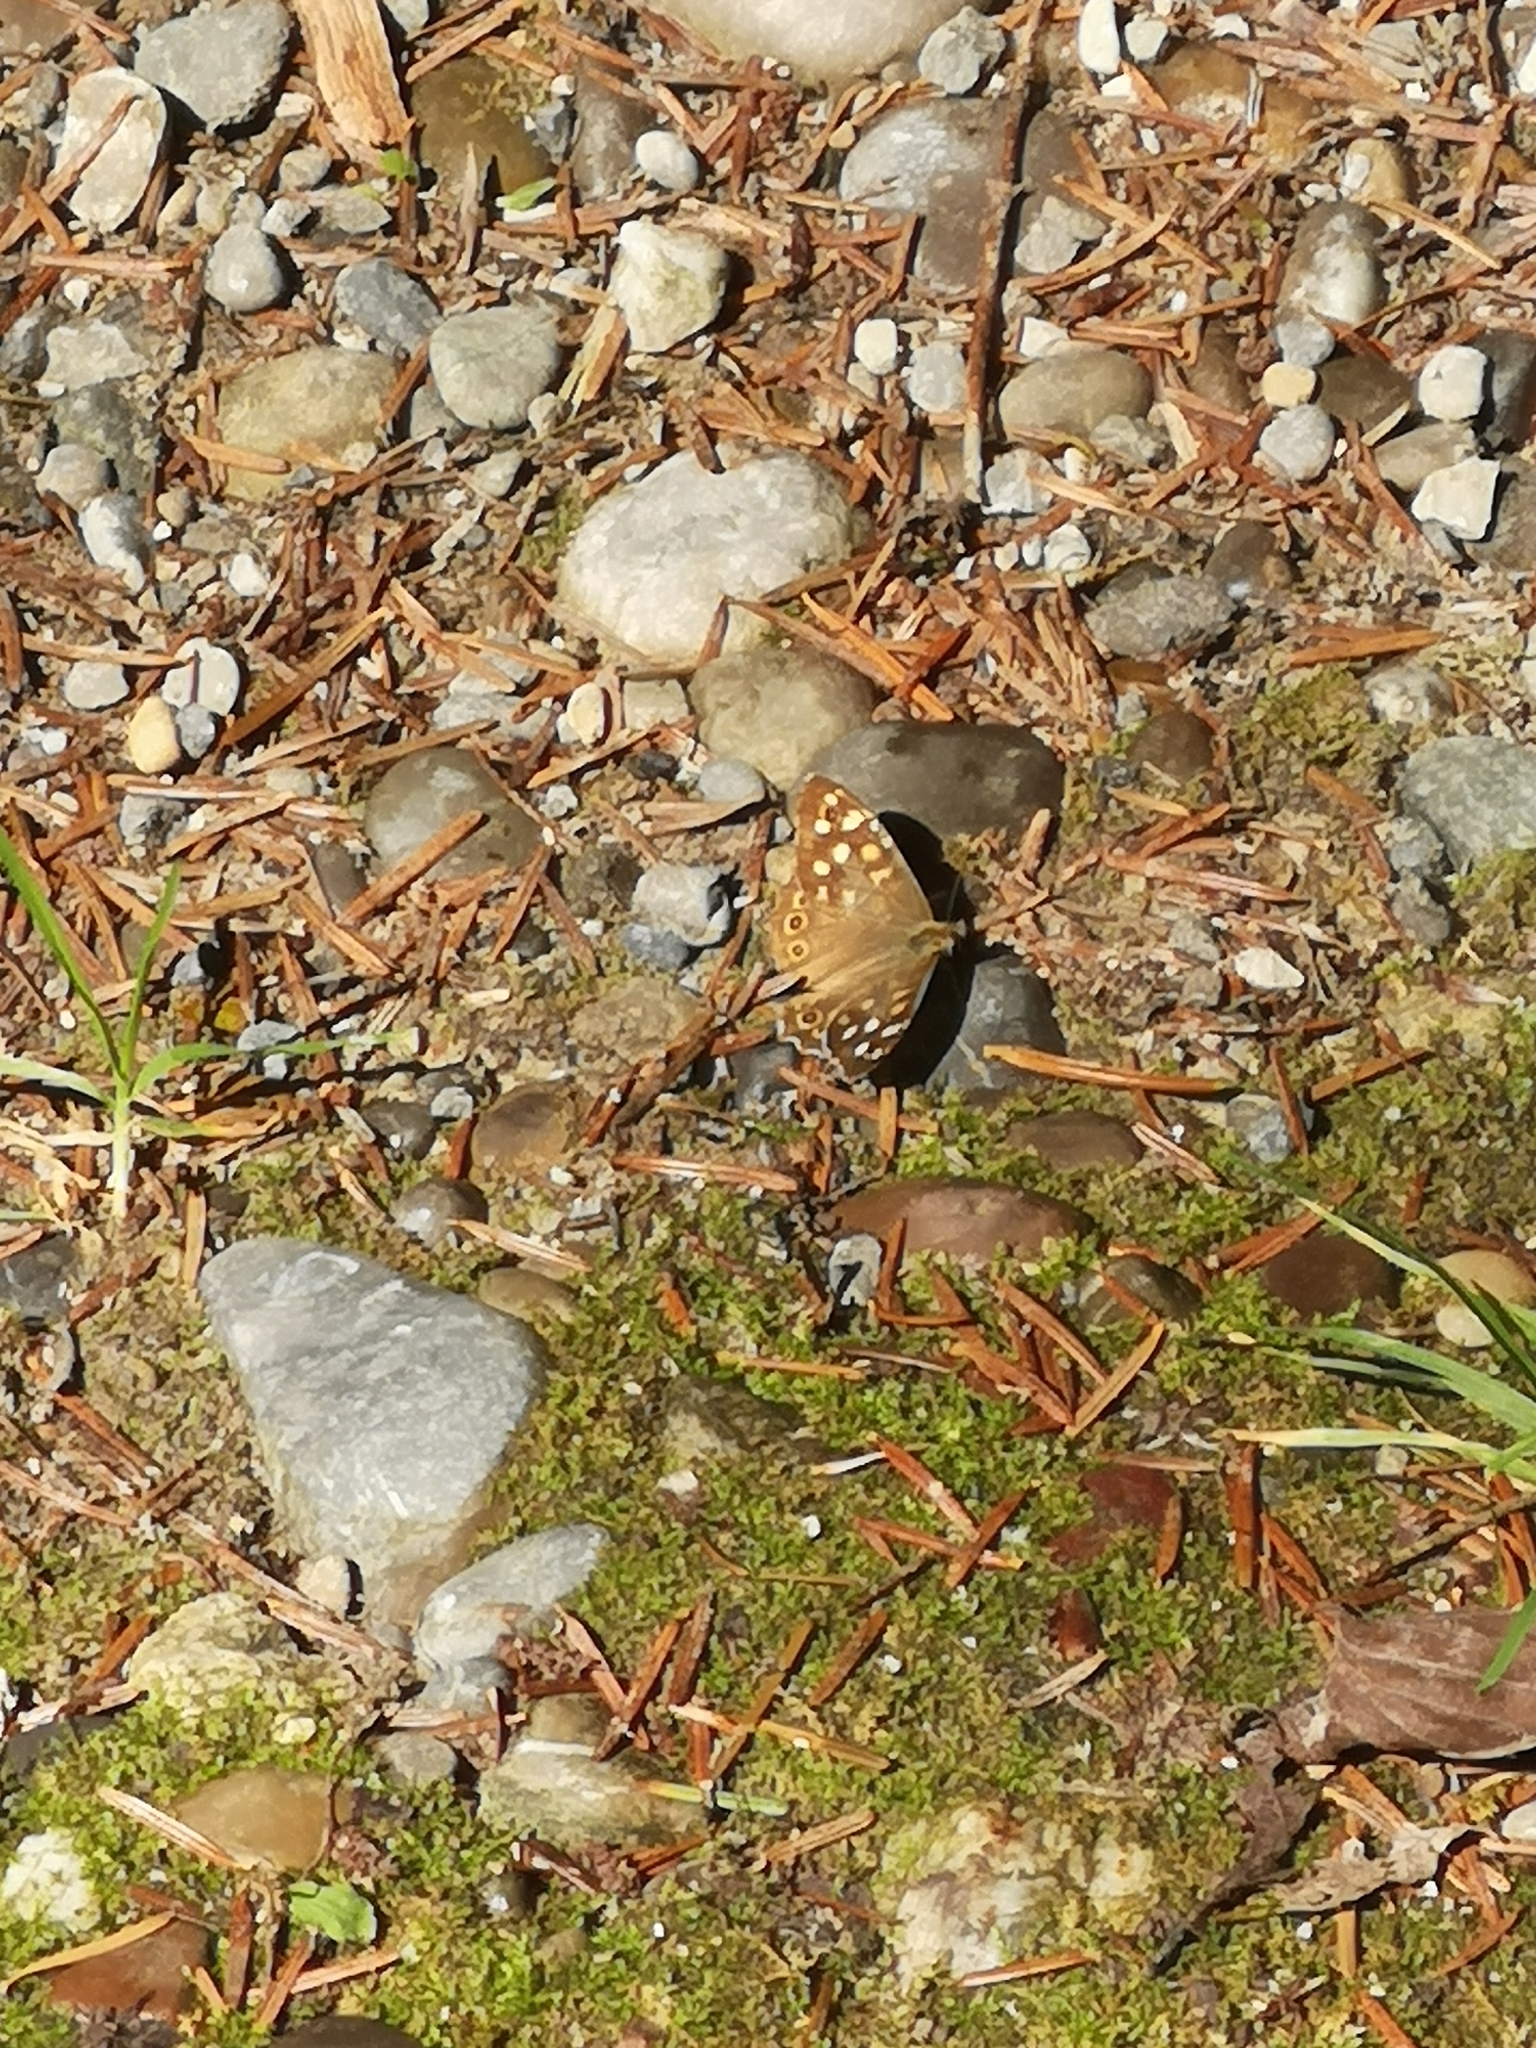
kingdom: Animalia
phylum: Arthropoda
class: Insecta
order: Lepidoptera
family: Nymphalidae
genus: Pararge
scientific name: Pararge aegeria
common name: Speckled wood
